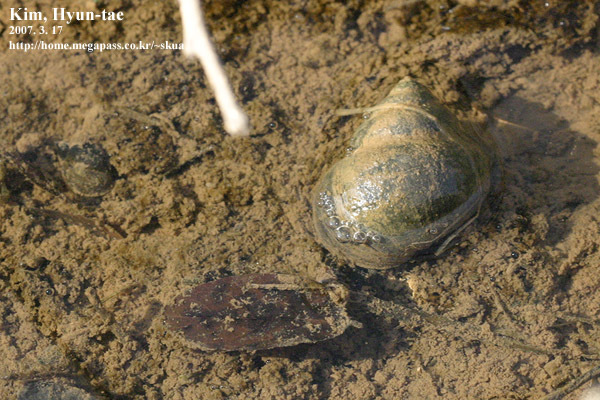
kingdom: Animalia
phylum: Mollusca
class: Gastropoda
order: Architaenioglossa
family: Viviparidae
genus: Cipangopaludina
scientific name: Cipangopaludina chinensis
